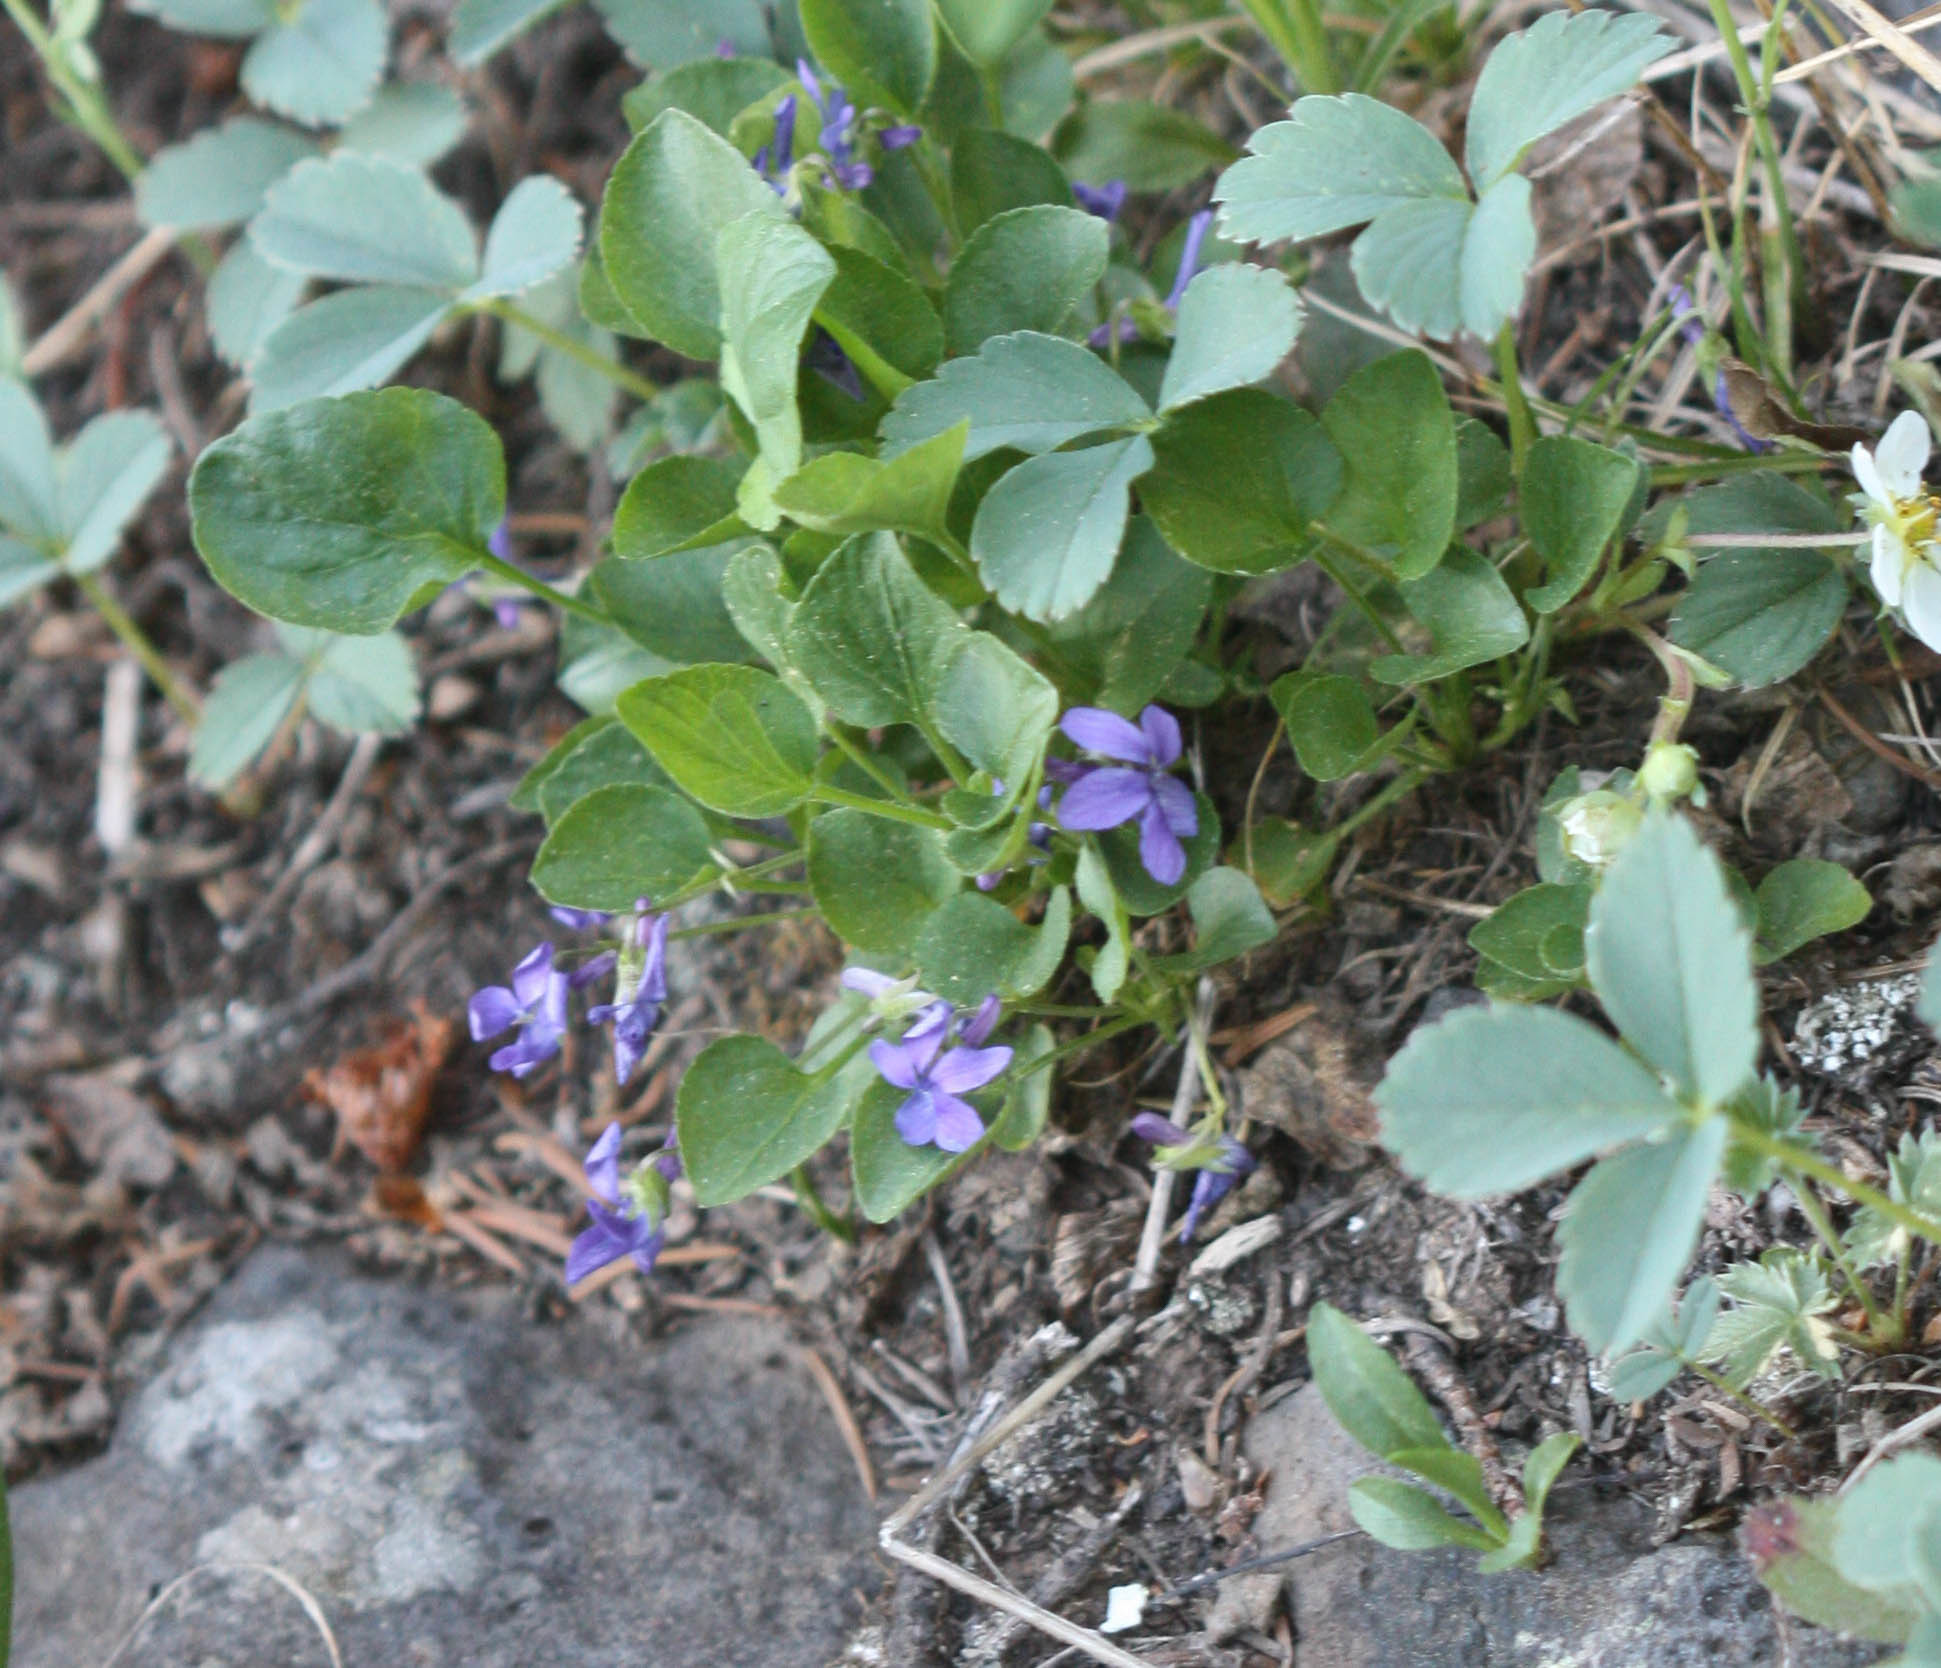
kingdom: Plantae
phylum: Tracheophyta
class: Magnoliopsida
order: Malpighiales
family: Violaceae
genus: Viola
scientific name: Viola adunca
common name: Sand violet
